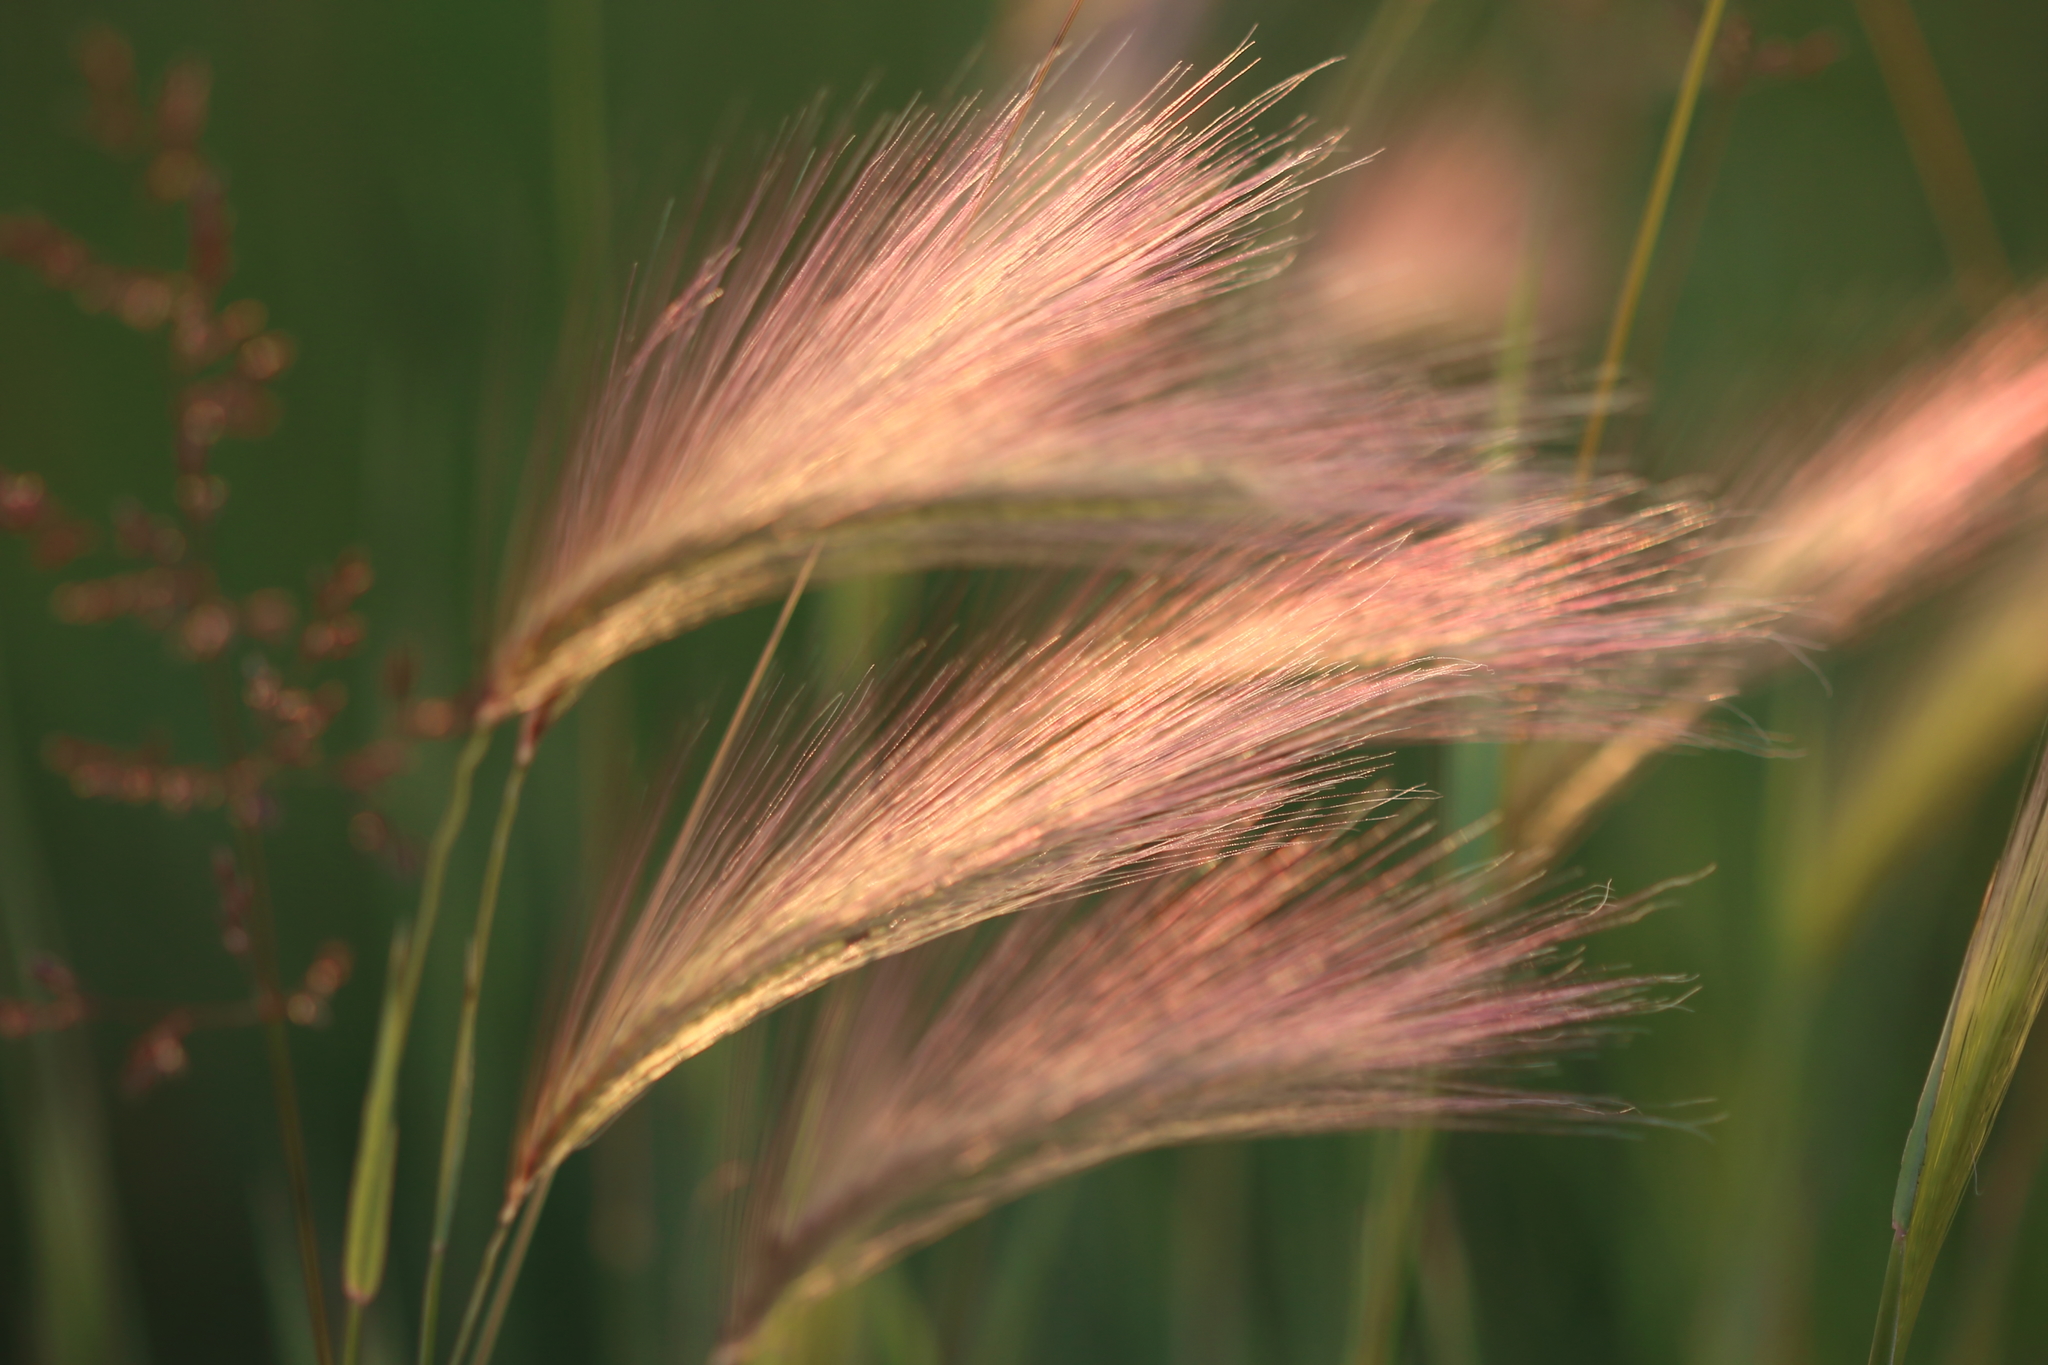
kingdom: Plantae
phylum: Tracheophyta
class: Liliopsida
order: Poales
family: Poaceae
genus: Hordeum
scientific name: Hordeum jubatum
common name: Foxtail barley
